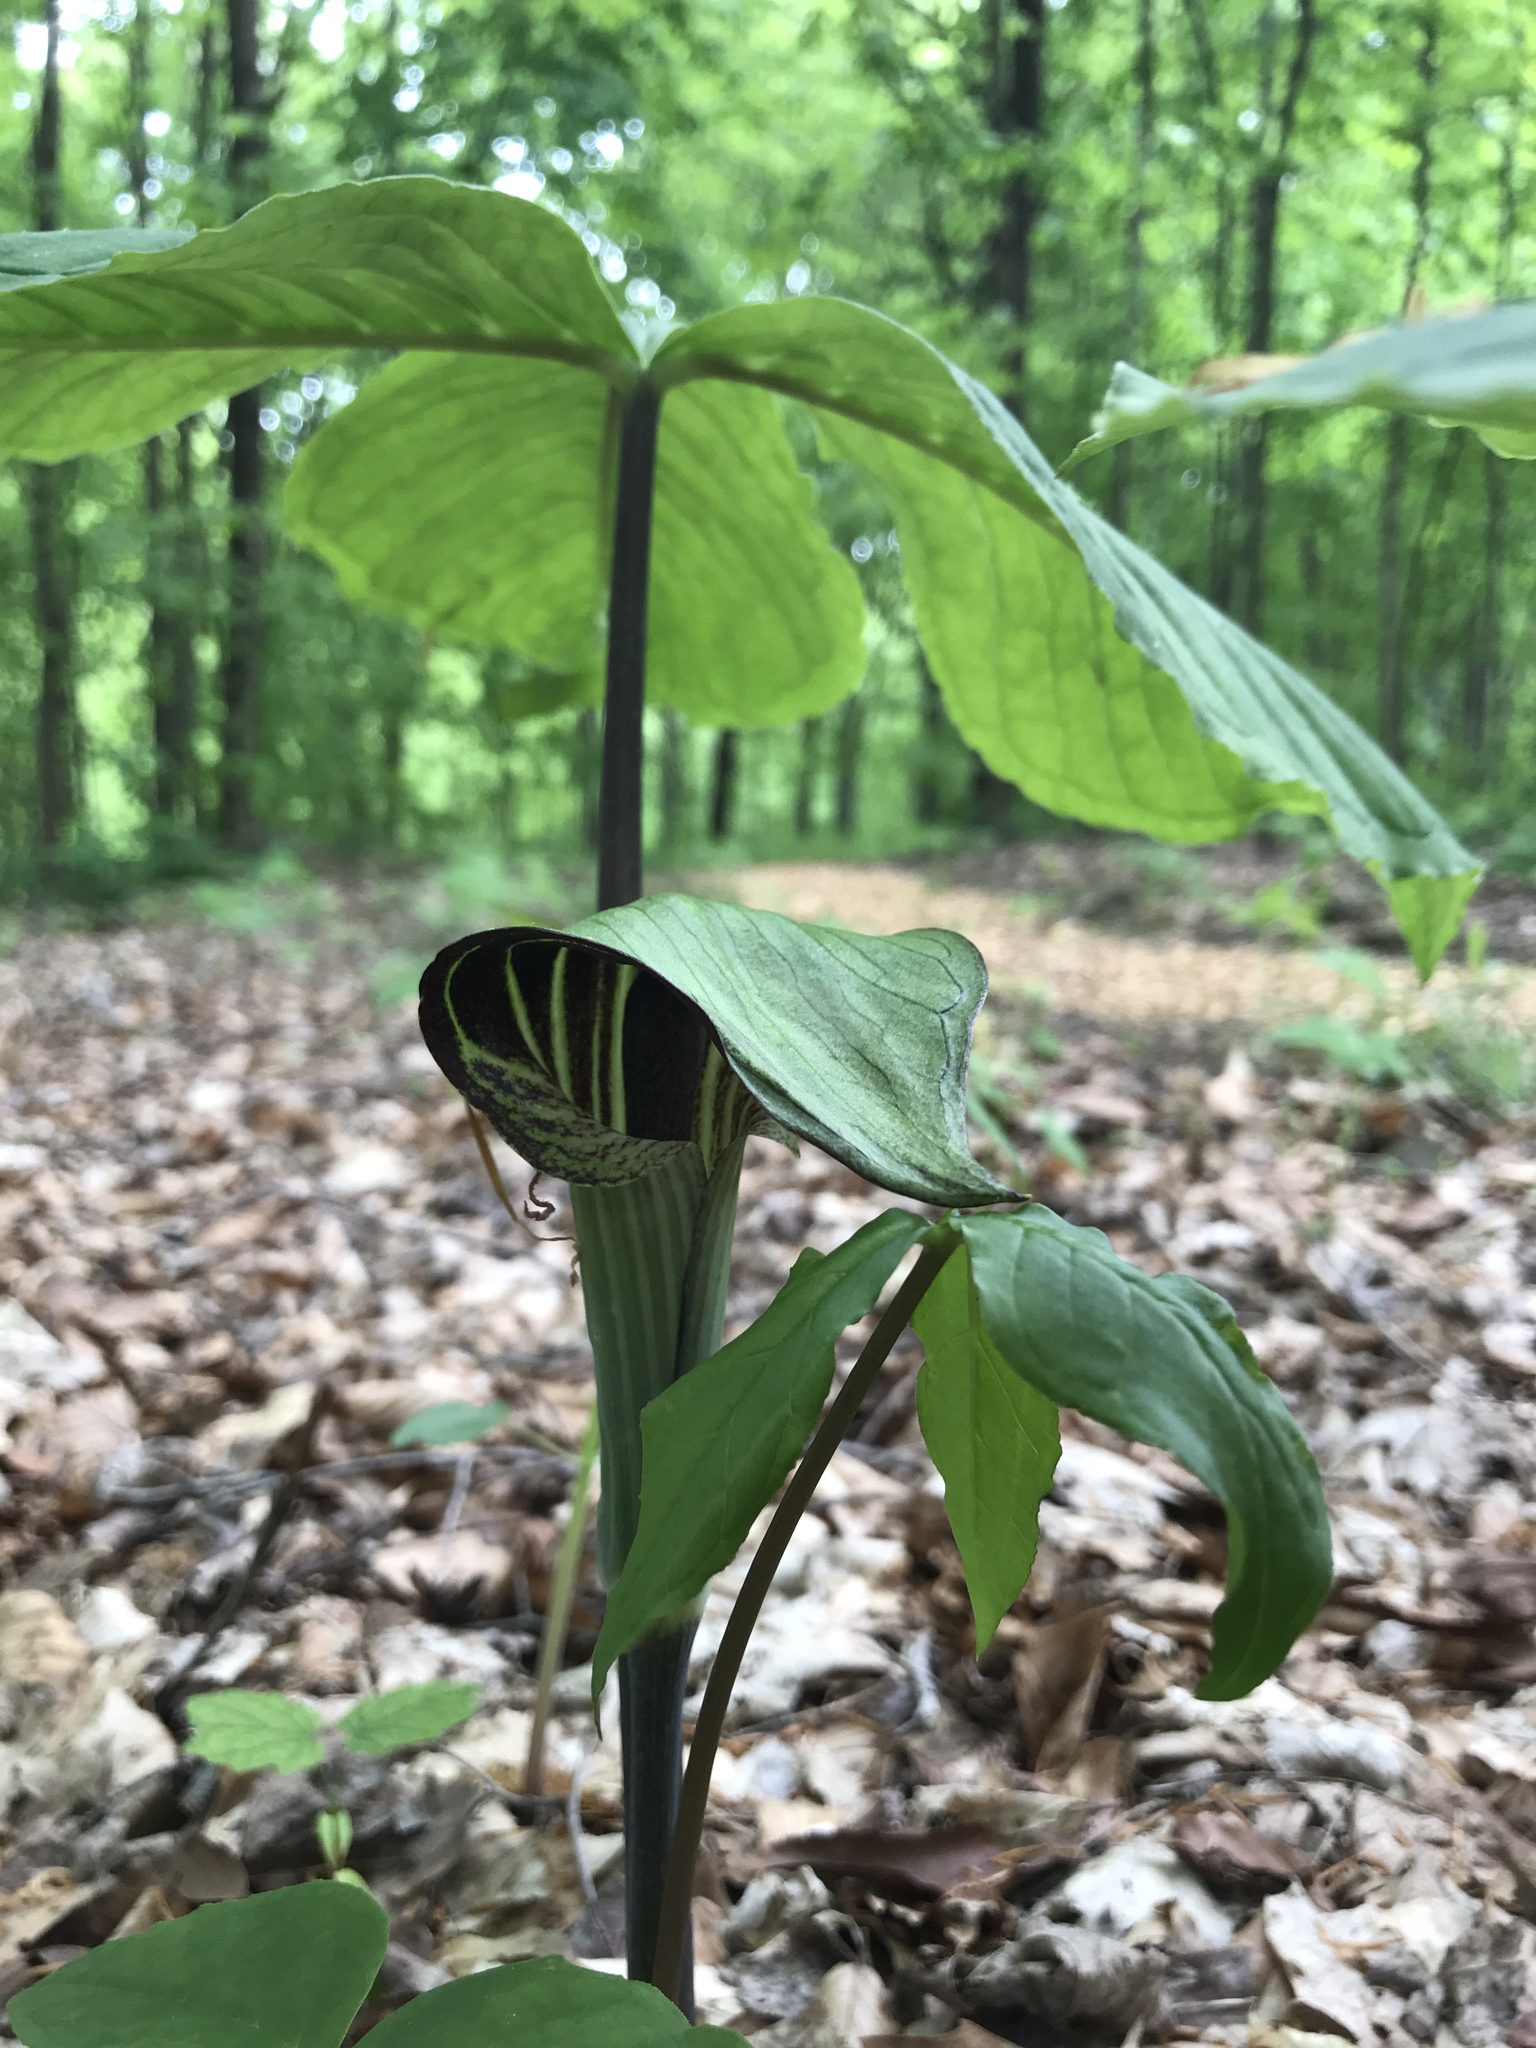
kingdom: Plantae
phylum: Tracheophyta
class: Liliopsida
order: Alismatales
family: Araceae
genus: Arisaema
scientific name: Arisaema triphyllum
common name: Jack-in-the-pulpit
